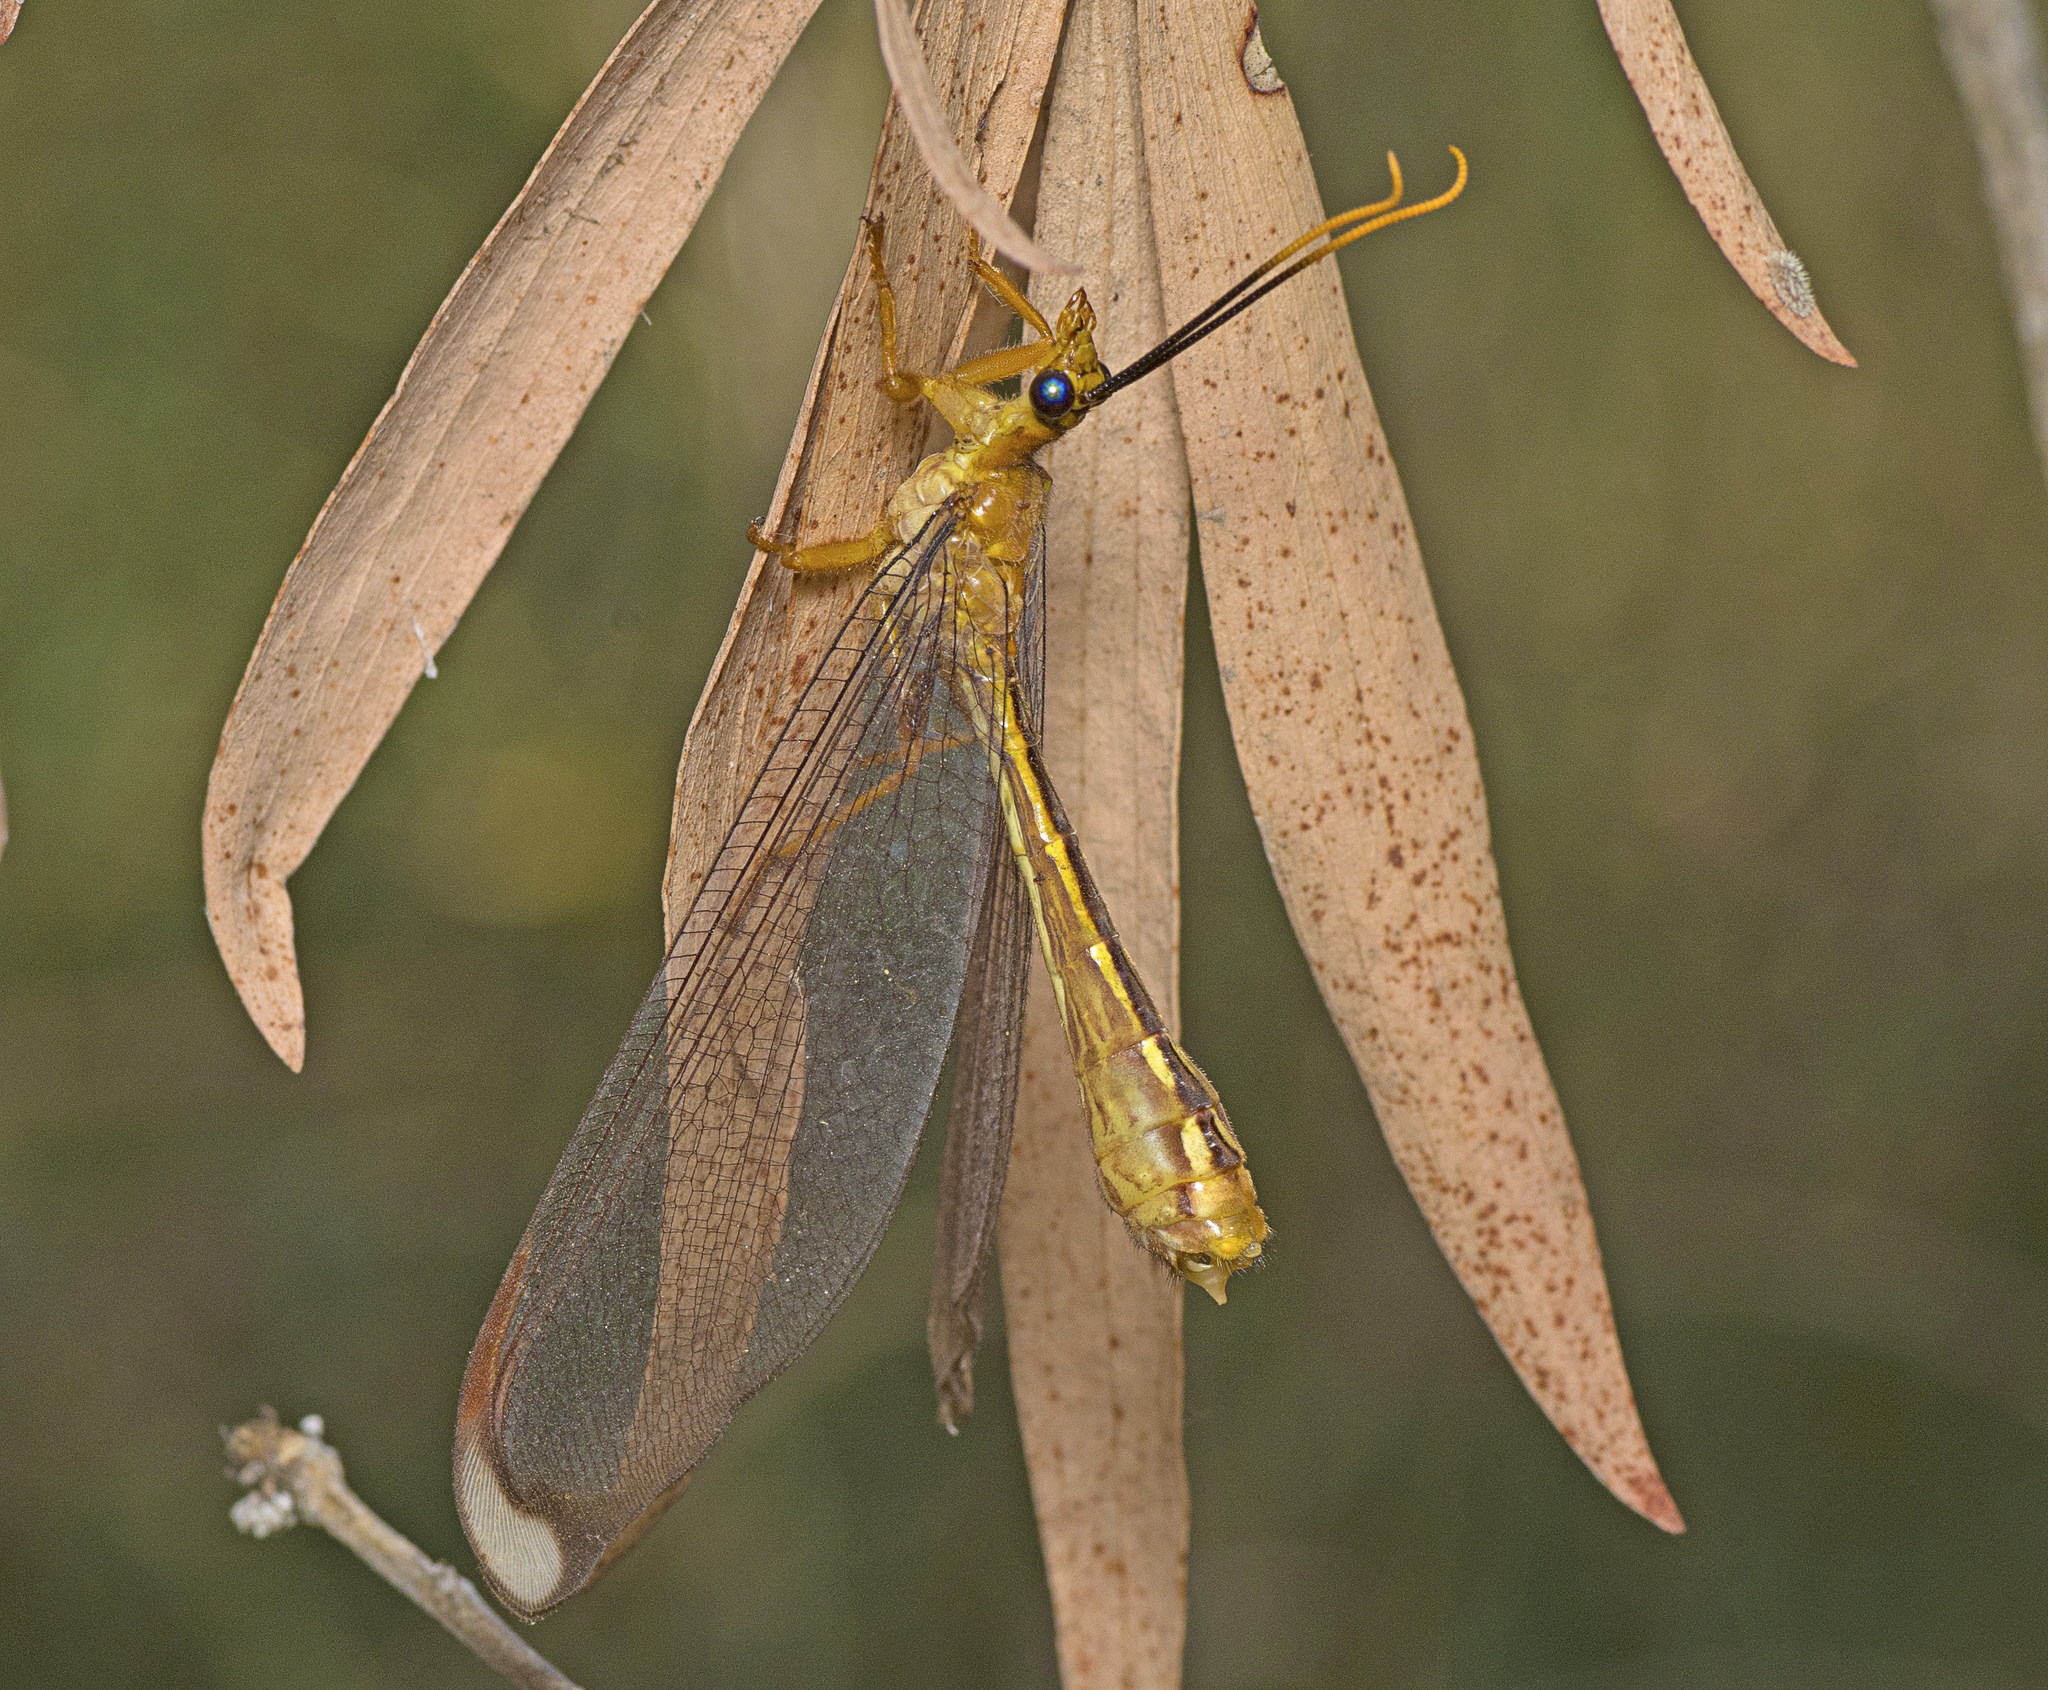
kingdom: Animalia
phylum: Arthropoda
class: Insecta
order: Neuroptera
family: Nymphidae
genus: Nymphes
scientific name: Nymphes myrmeleonoides
